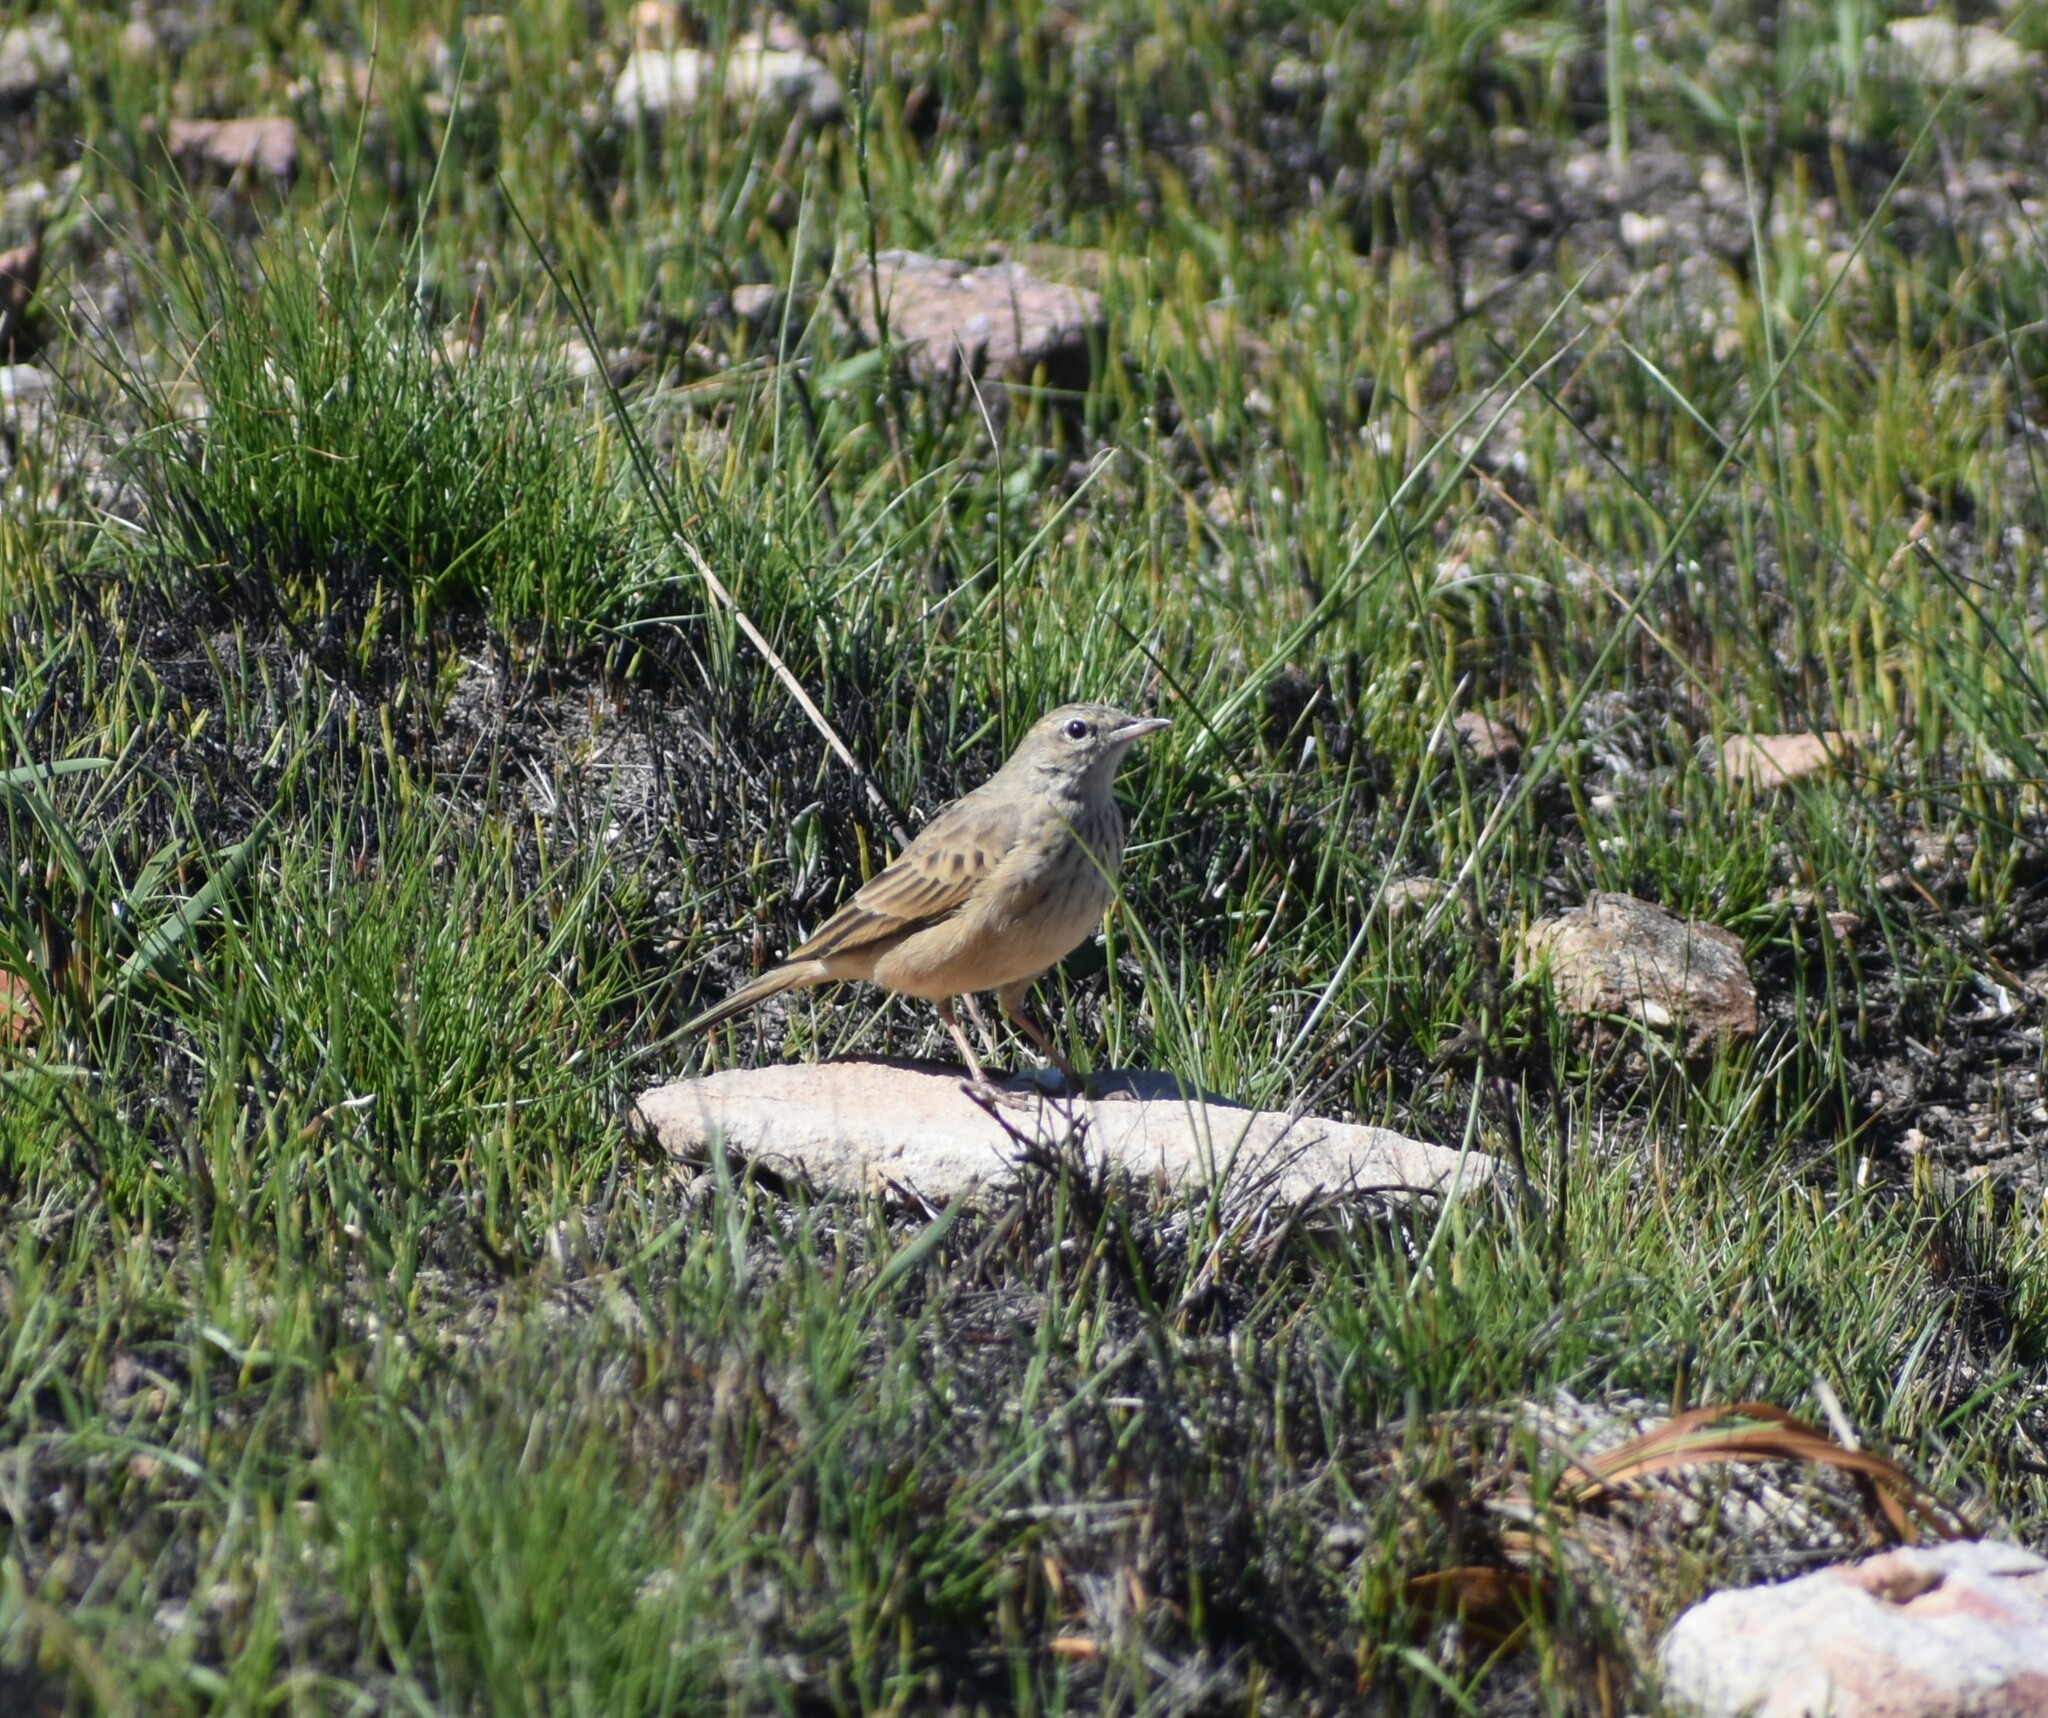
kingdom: Animalia
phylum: Chordata
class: Aves
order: Passeriformes
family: Motacillidae
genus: Anthus
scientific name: Anthus nicholsoni
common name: Nicholson's pipit
